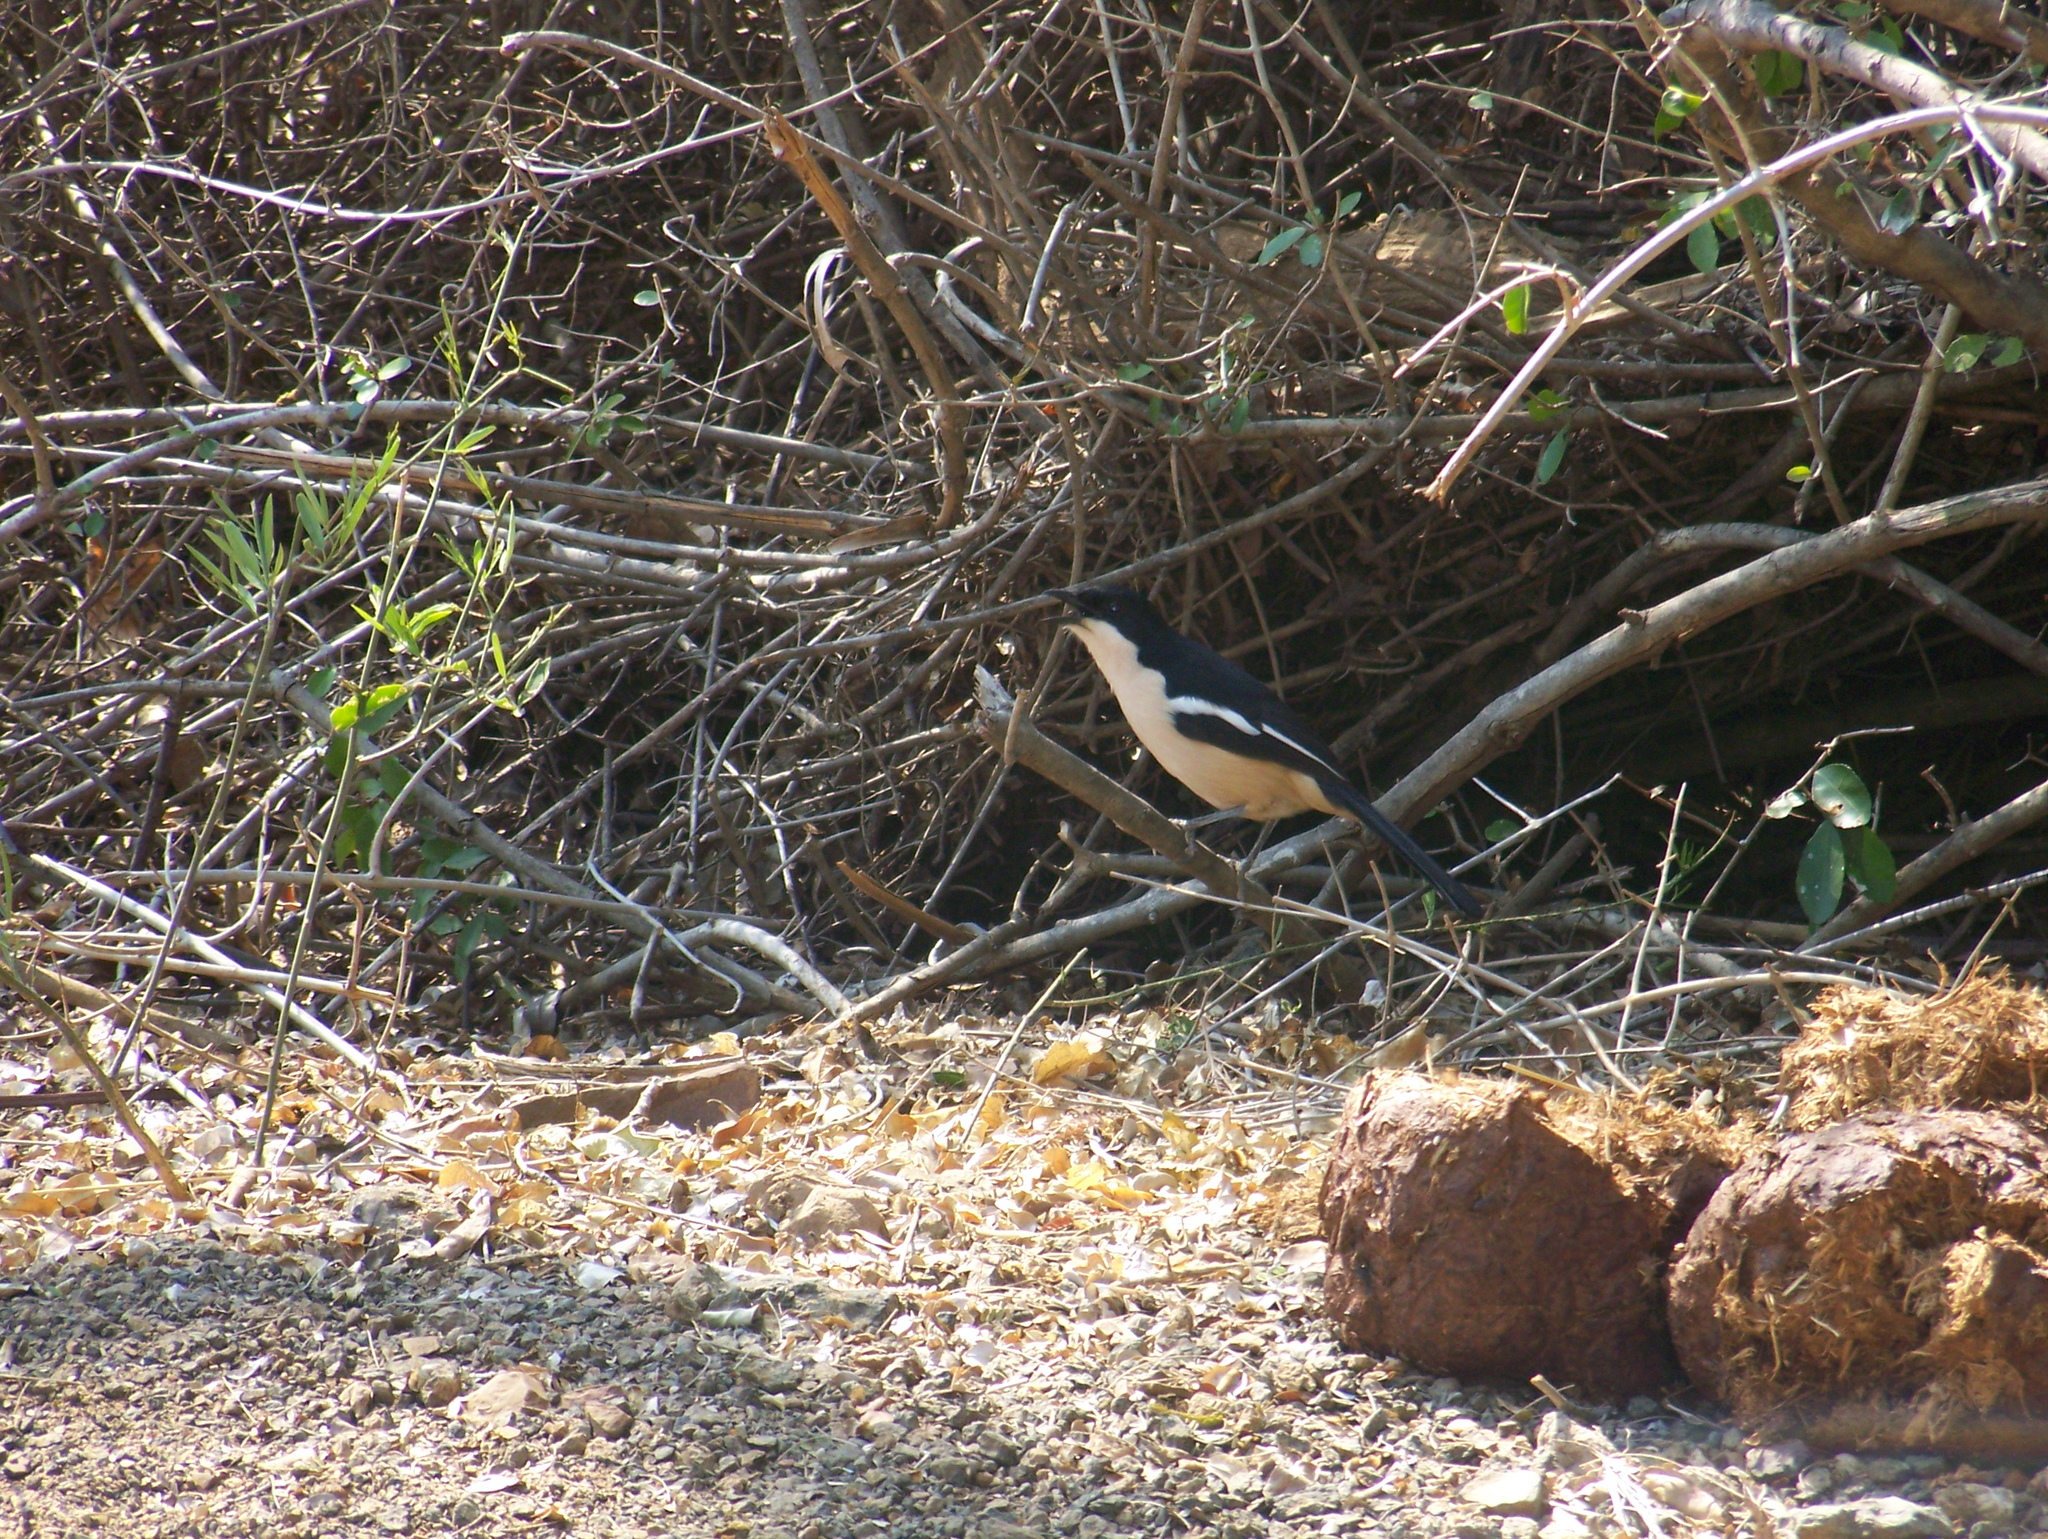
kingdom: Animalia
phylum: Chordata
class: Aves
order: Passeriformes
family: Malaconotidae
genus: Laniarius
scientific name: Laniarius ferrugineus
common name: Southern boubou
